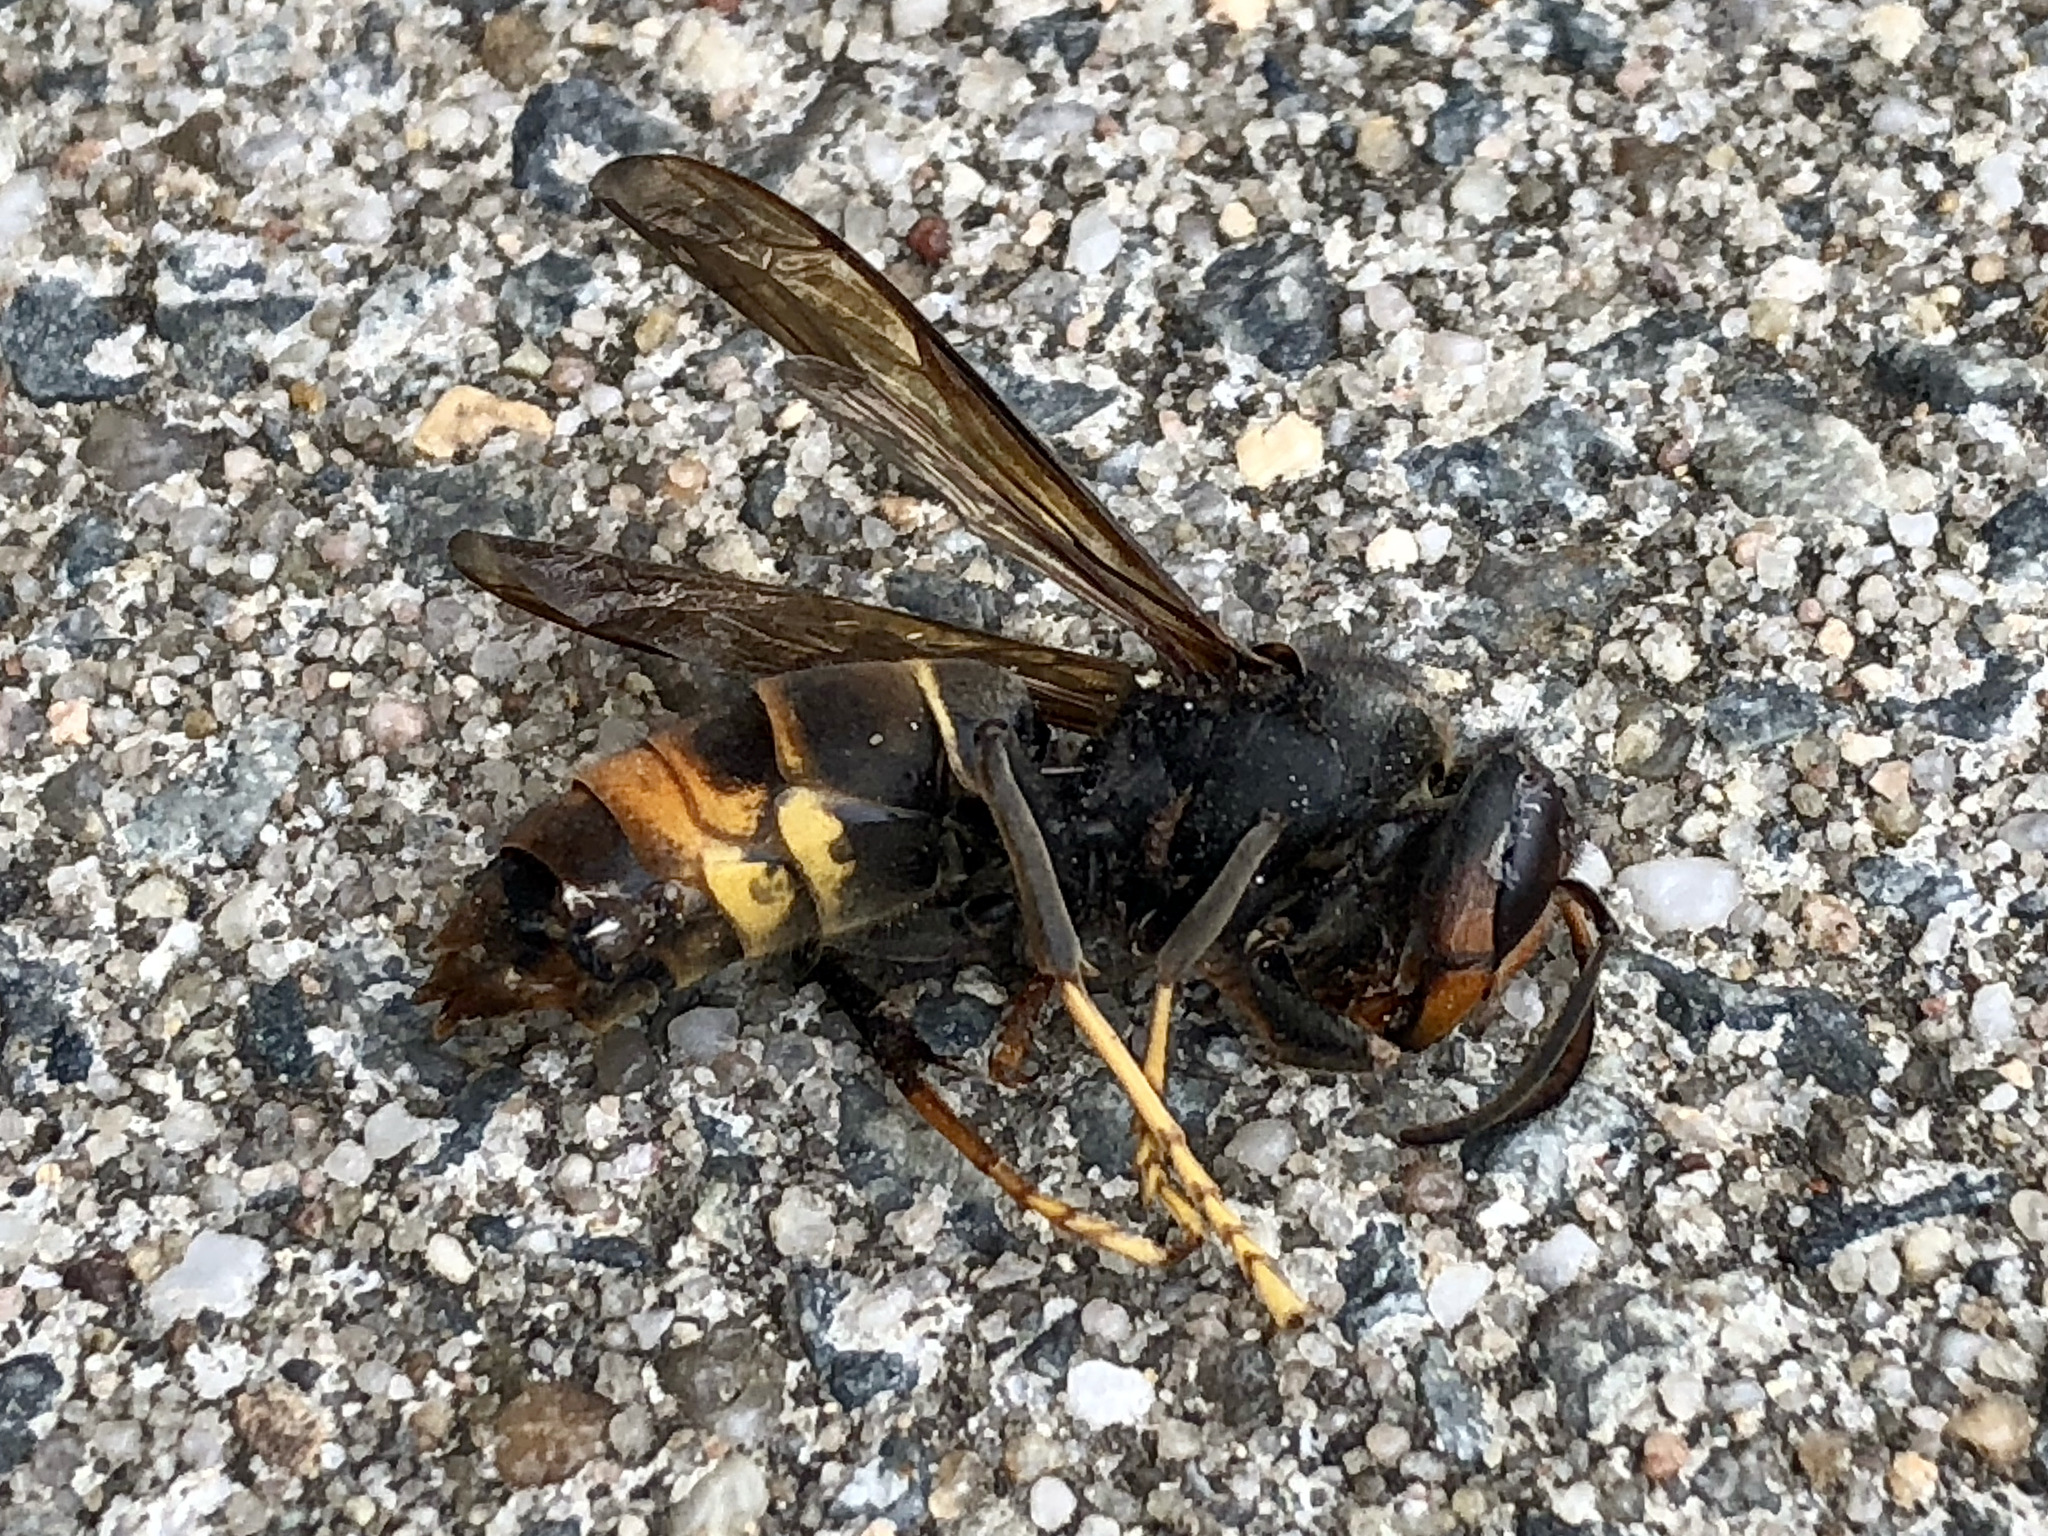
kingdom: Animalia
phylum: Arthropoda
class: Insecta
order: Hymenoptera
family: Vespidae
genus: Vespa
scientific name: Vespa velutina
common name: Asian hornet
